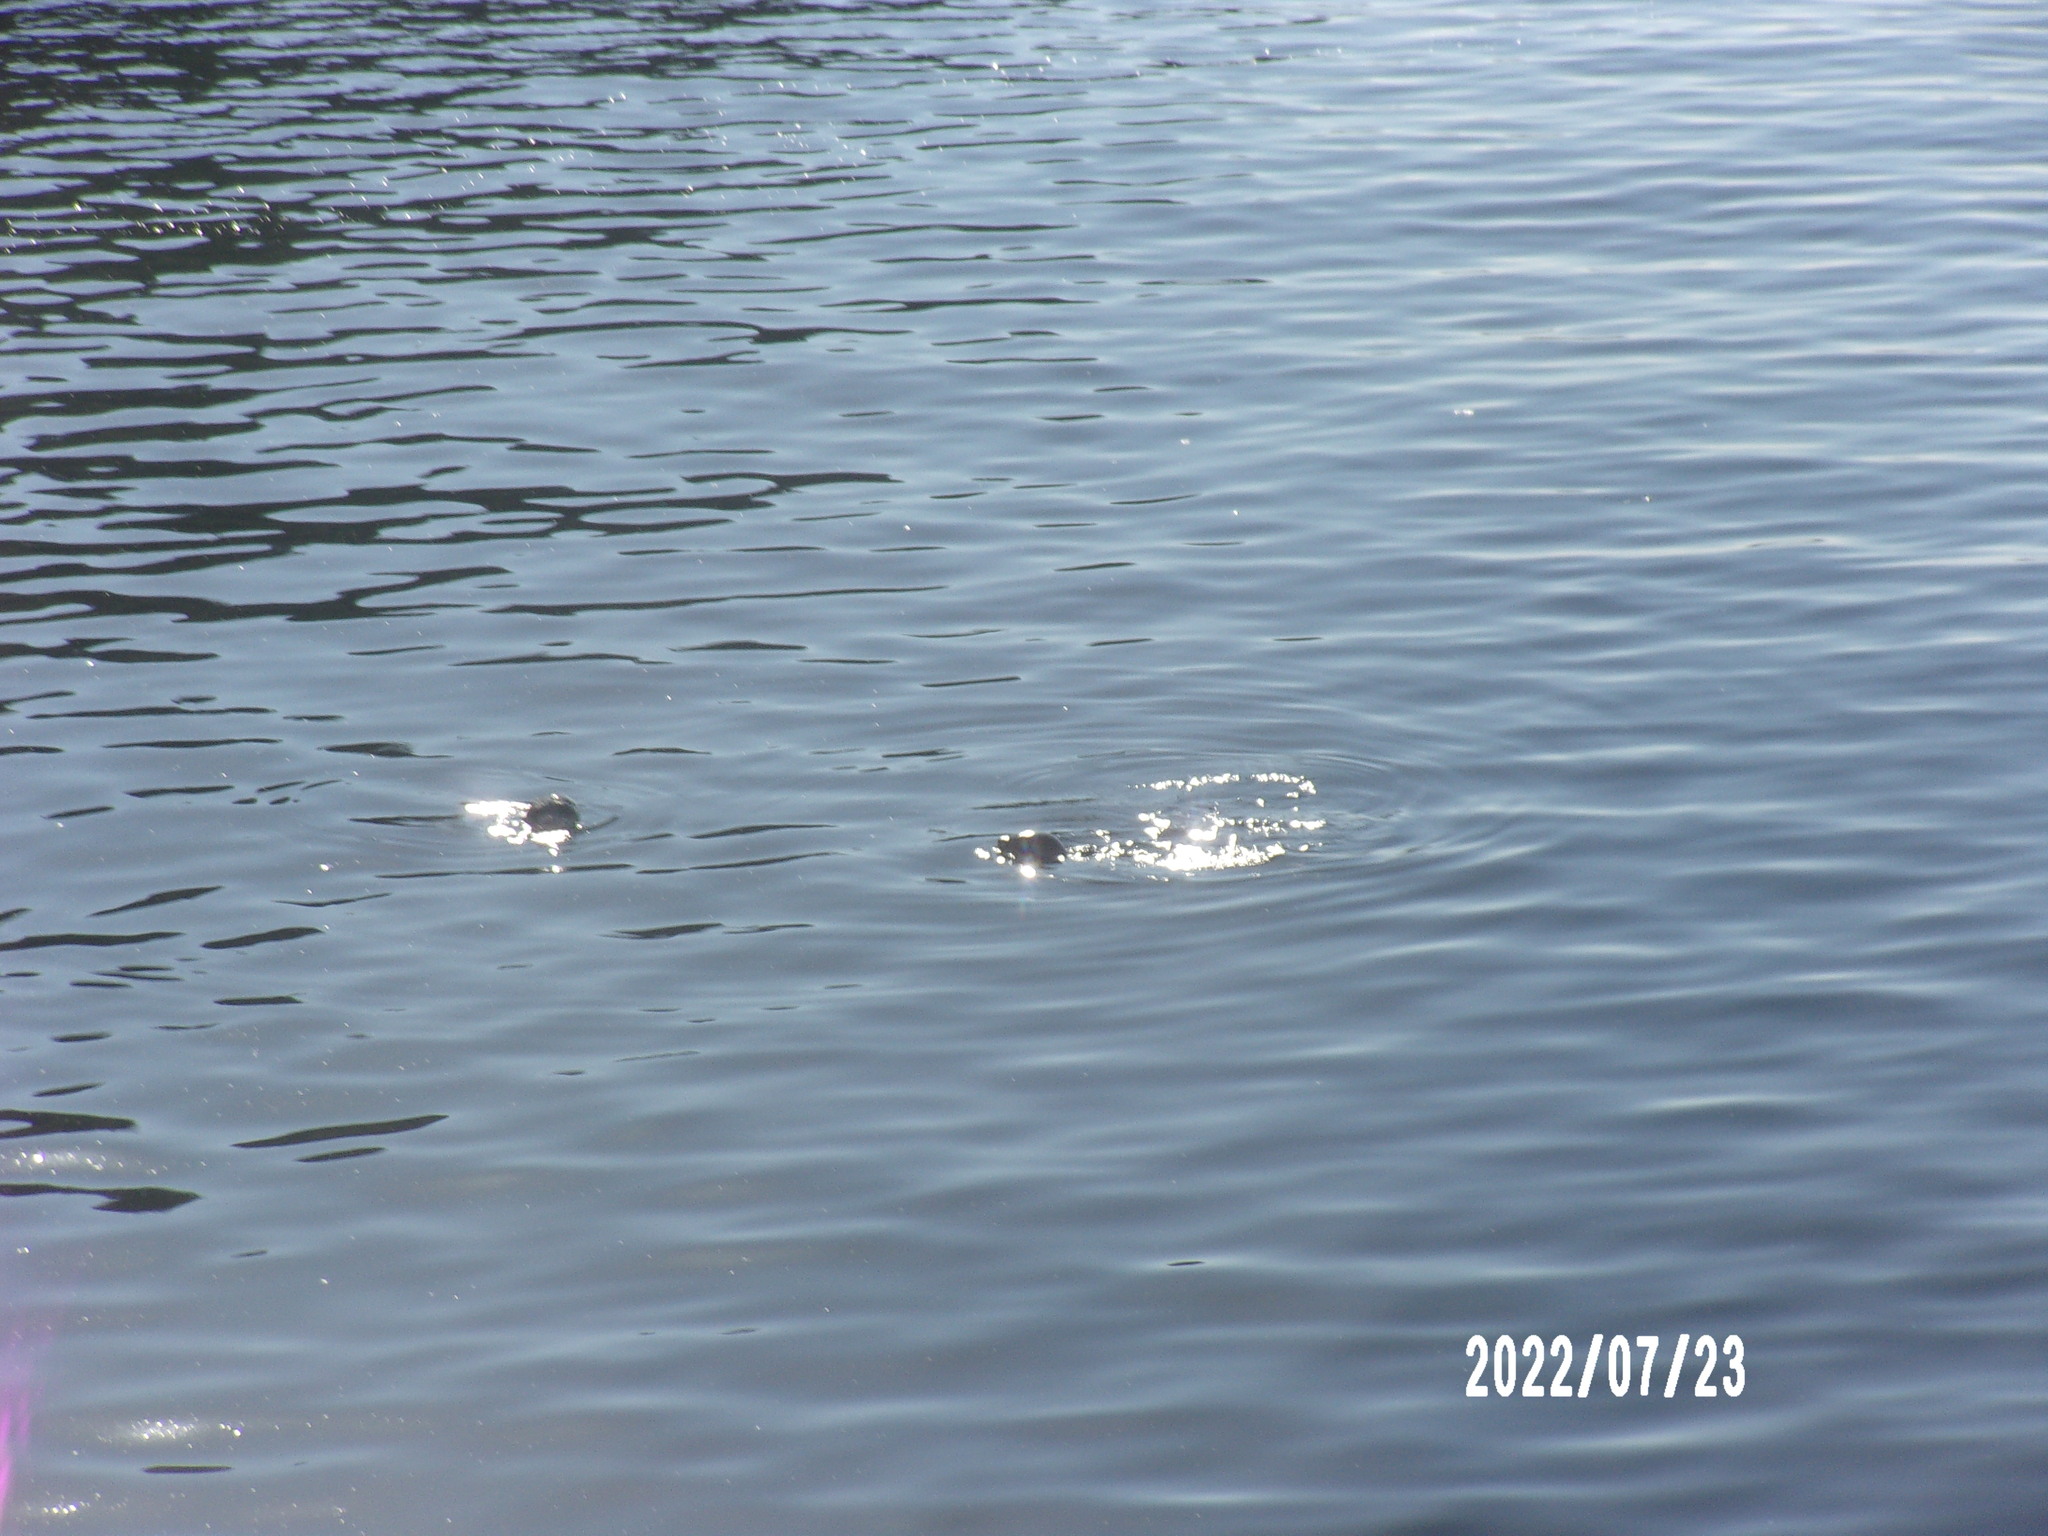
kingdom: Animalia
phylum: Chordata
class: Mammalia
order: Carnivora
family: Phocidae
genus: Phoca
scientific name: Phoca vitulina
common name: Harbor seal
